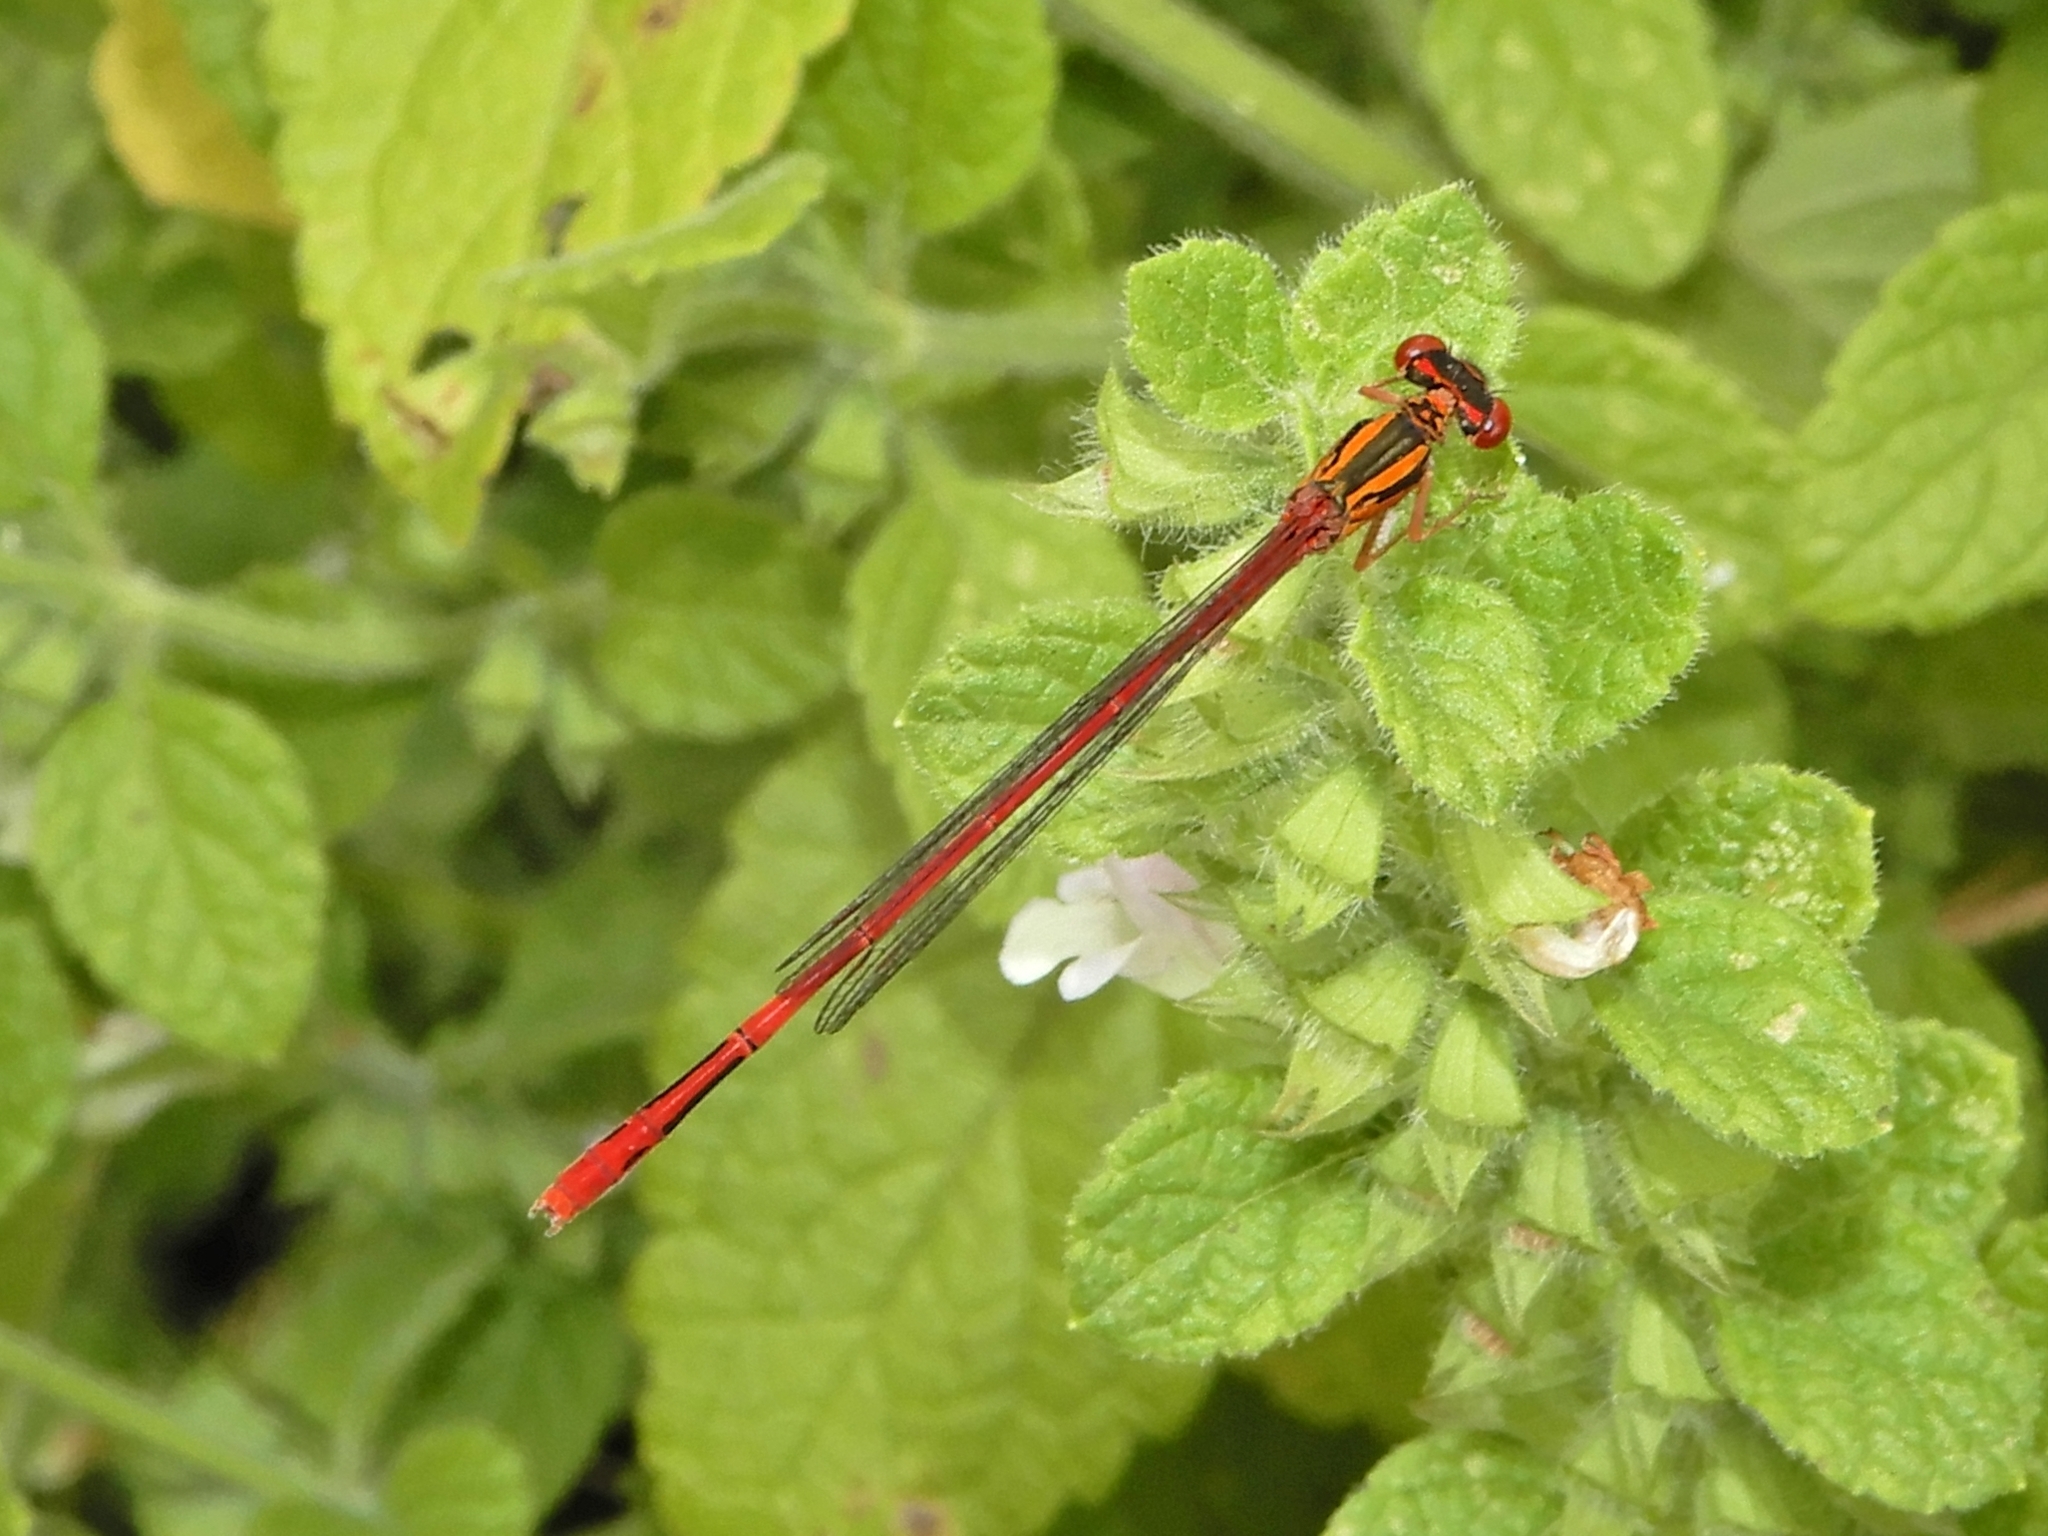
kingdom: Animalia
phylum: Arthropoda
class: Insecta
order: Odonata
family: Coenagrionidae
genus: Xanthocnemis
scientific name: Xanthocnemis zealandica
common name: Common redcoat damselfly
